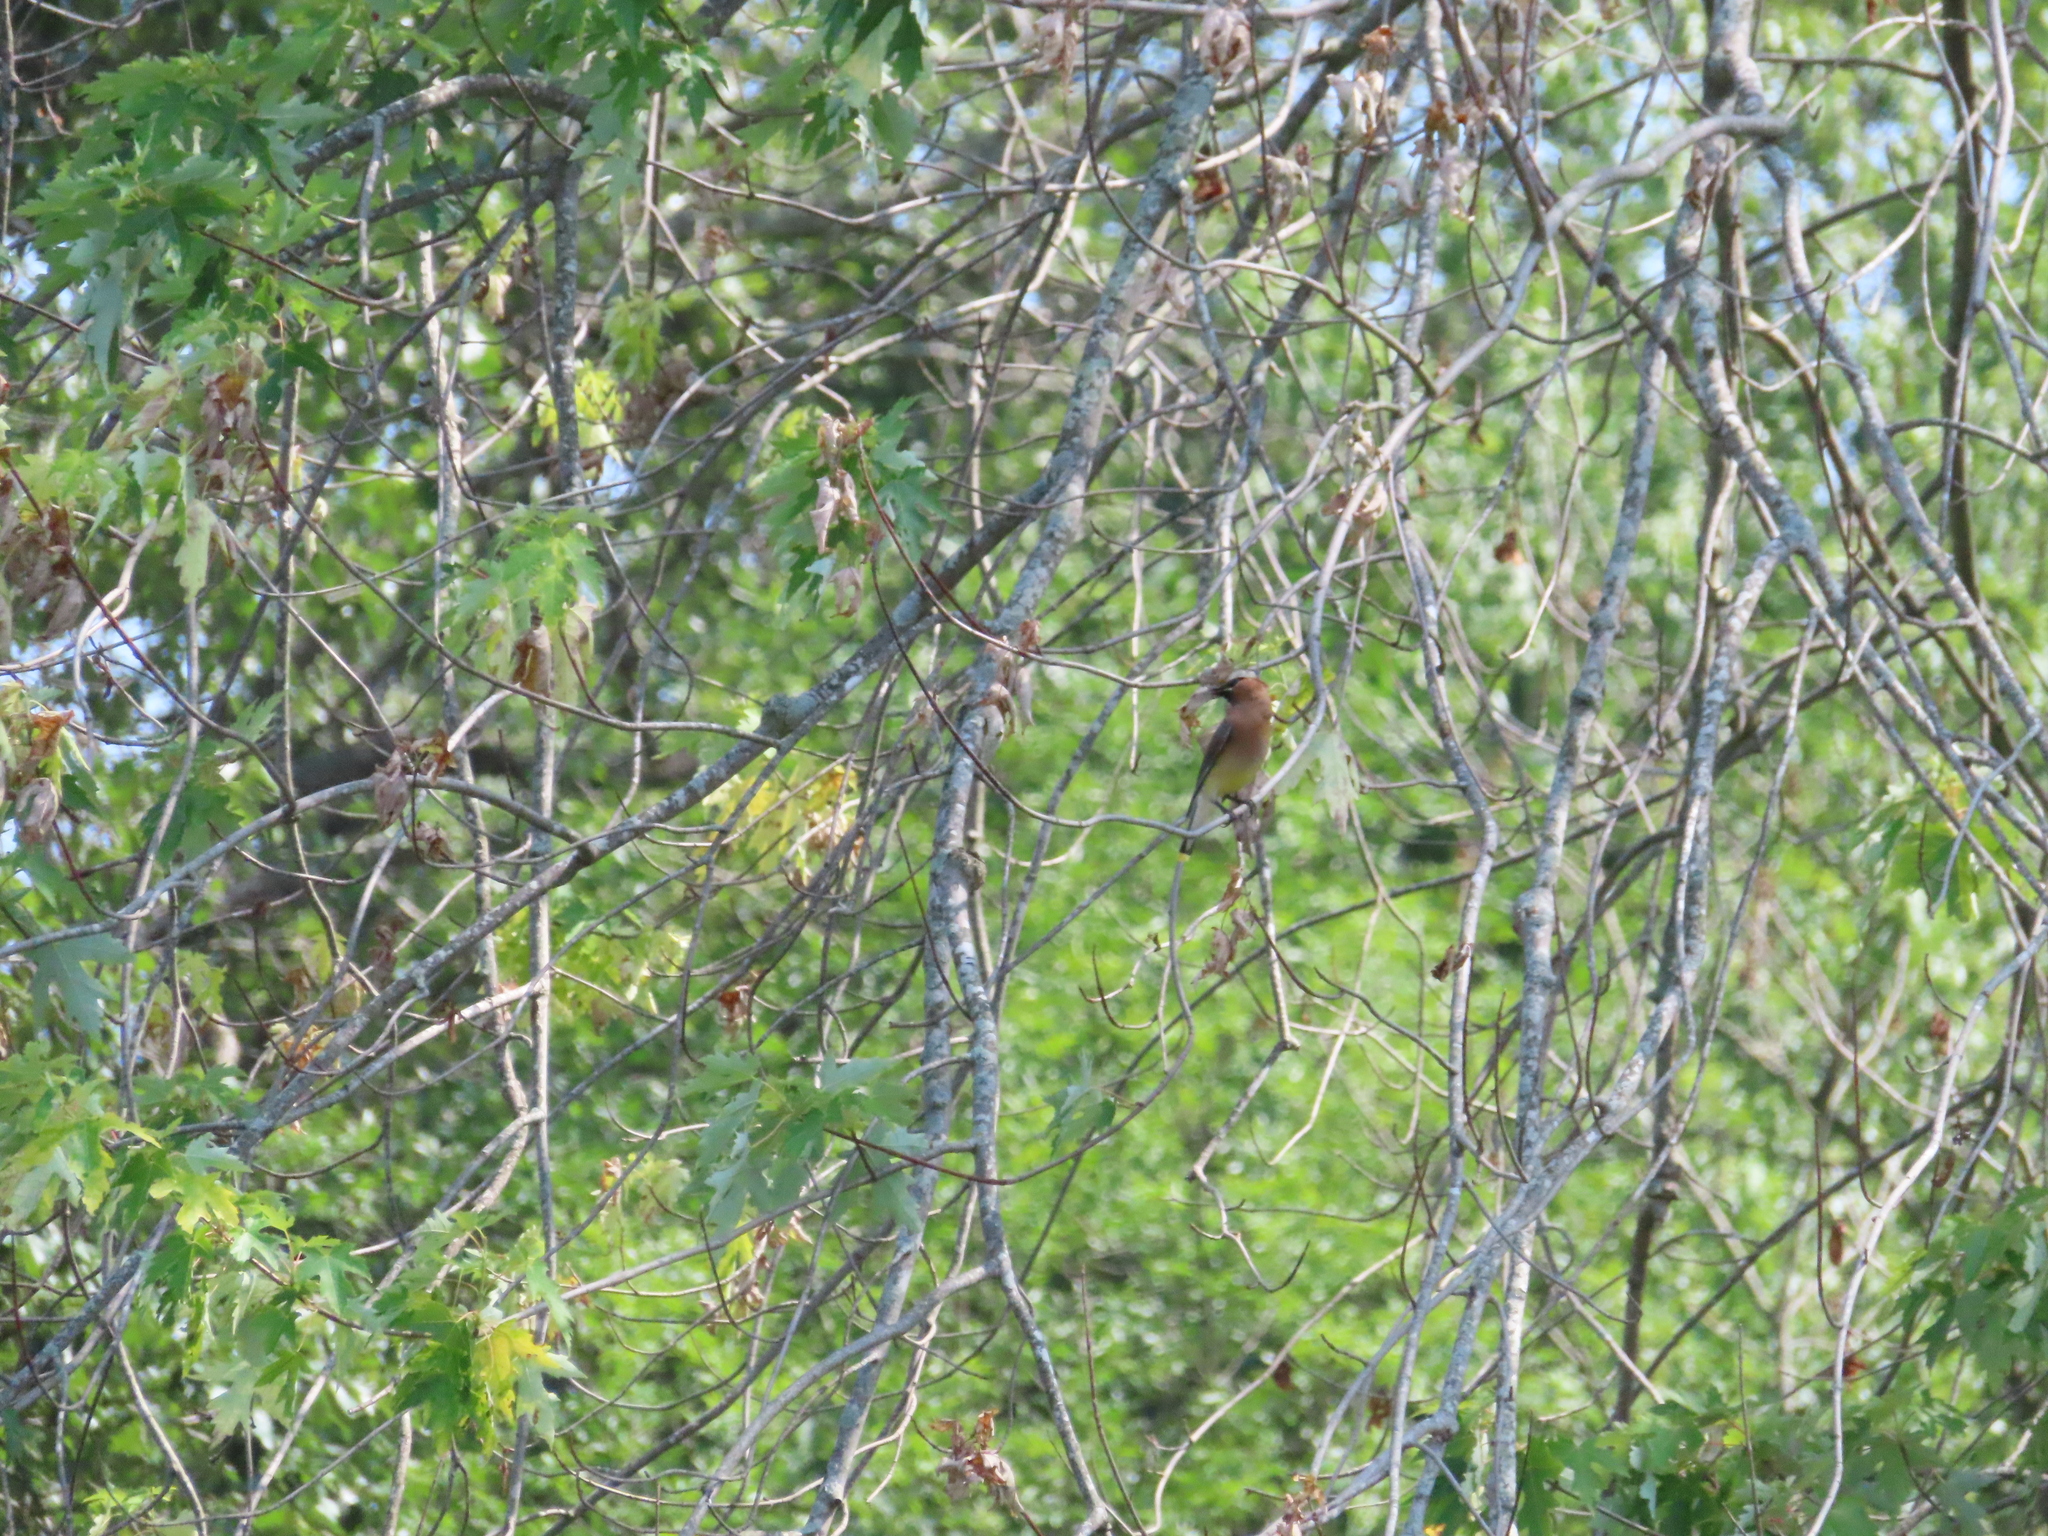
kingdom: Animalia
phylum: Chordata
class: Aves
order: Passeriformes
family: Bombycillidae
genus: Bombycilla
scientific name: Bombycilla cedrorum
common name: Cedar waxwing
